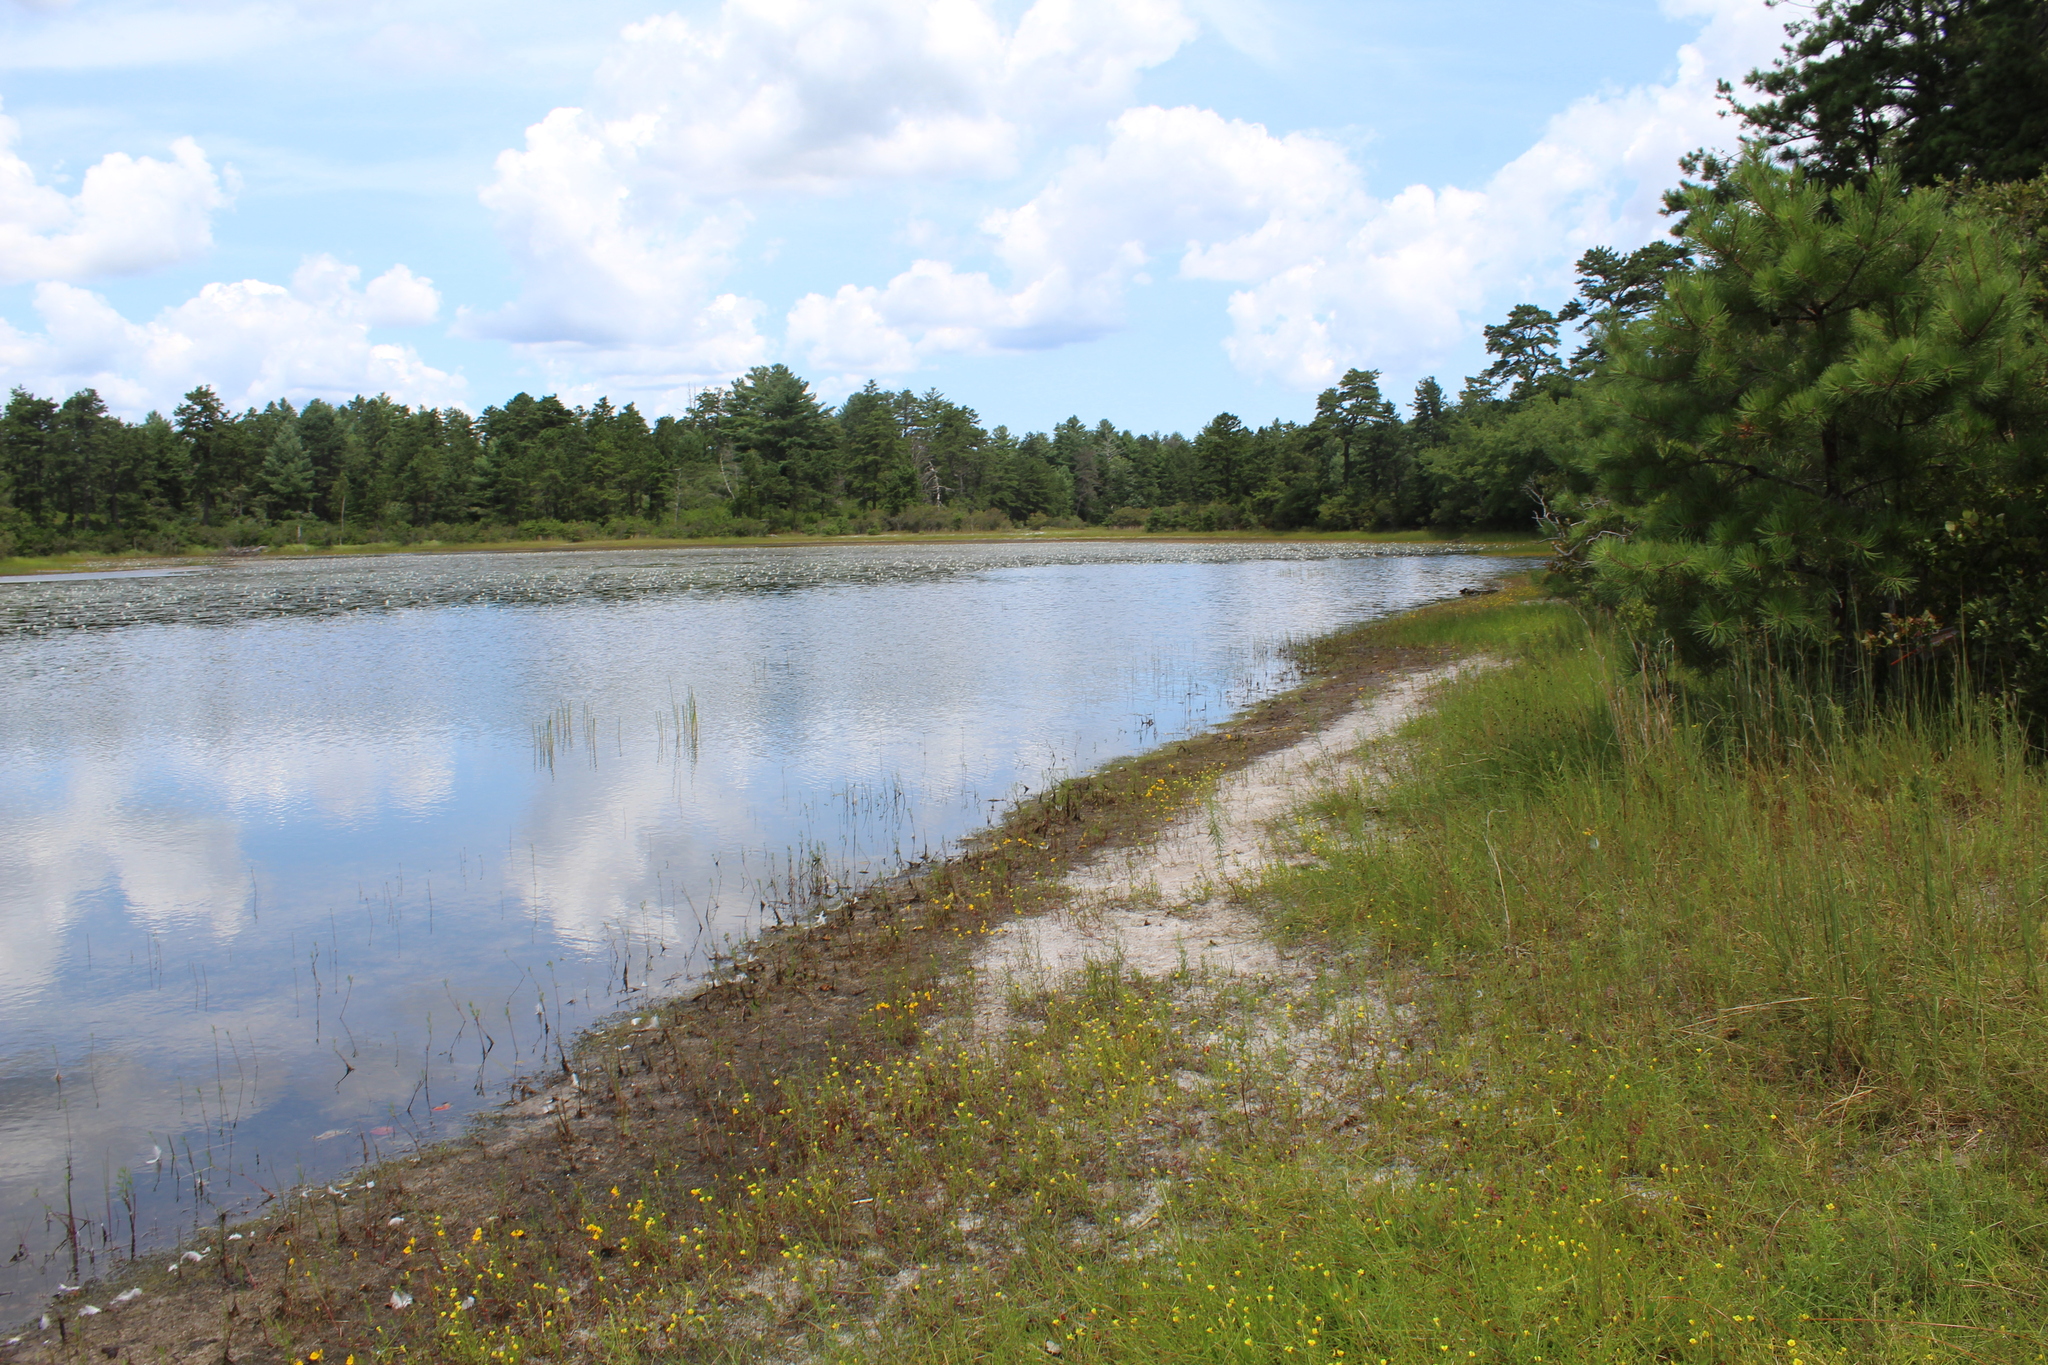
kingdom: Plantae
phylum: Tracheophyta
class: Magnoliopsida
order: Lamiales
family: Lentibulariaceae
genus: Utricularia
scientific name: Utricularia cornuta
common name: Horned bladderwort
